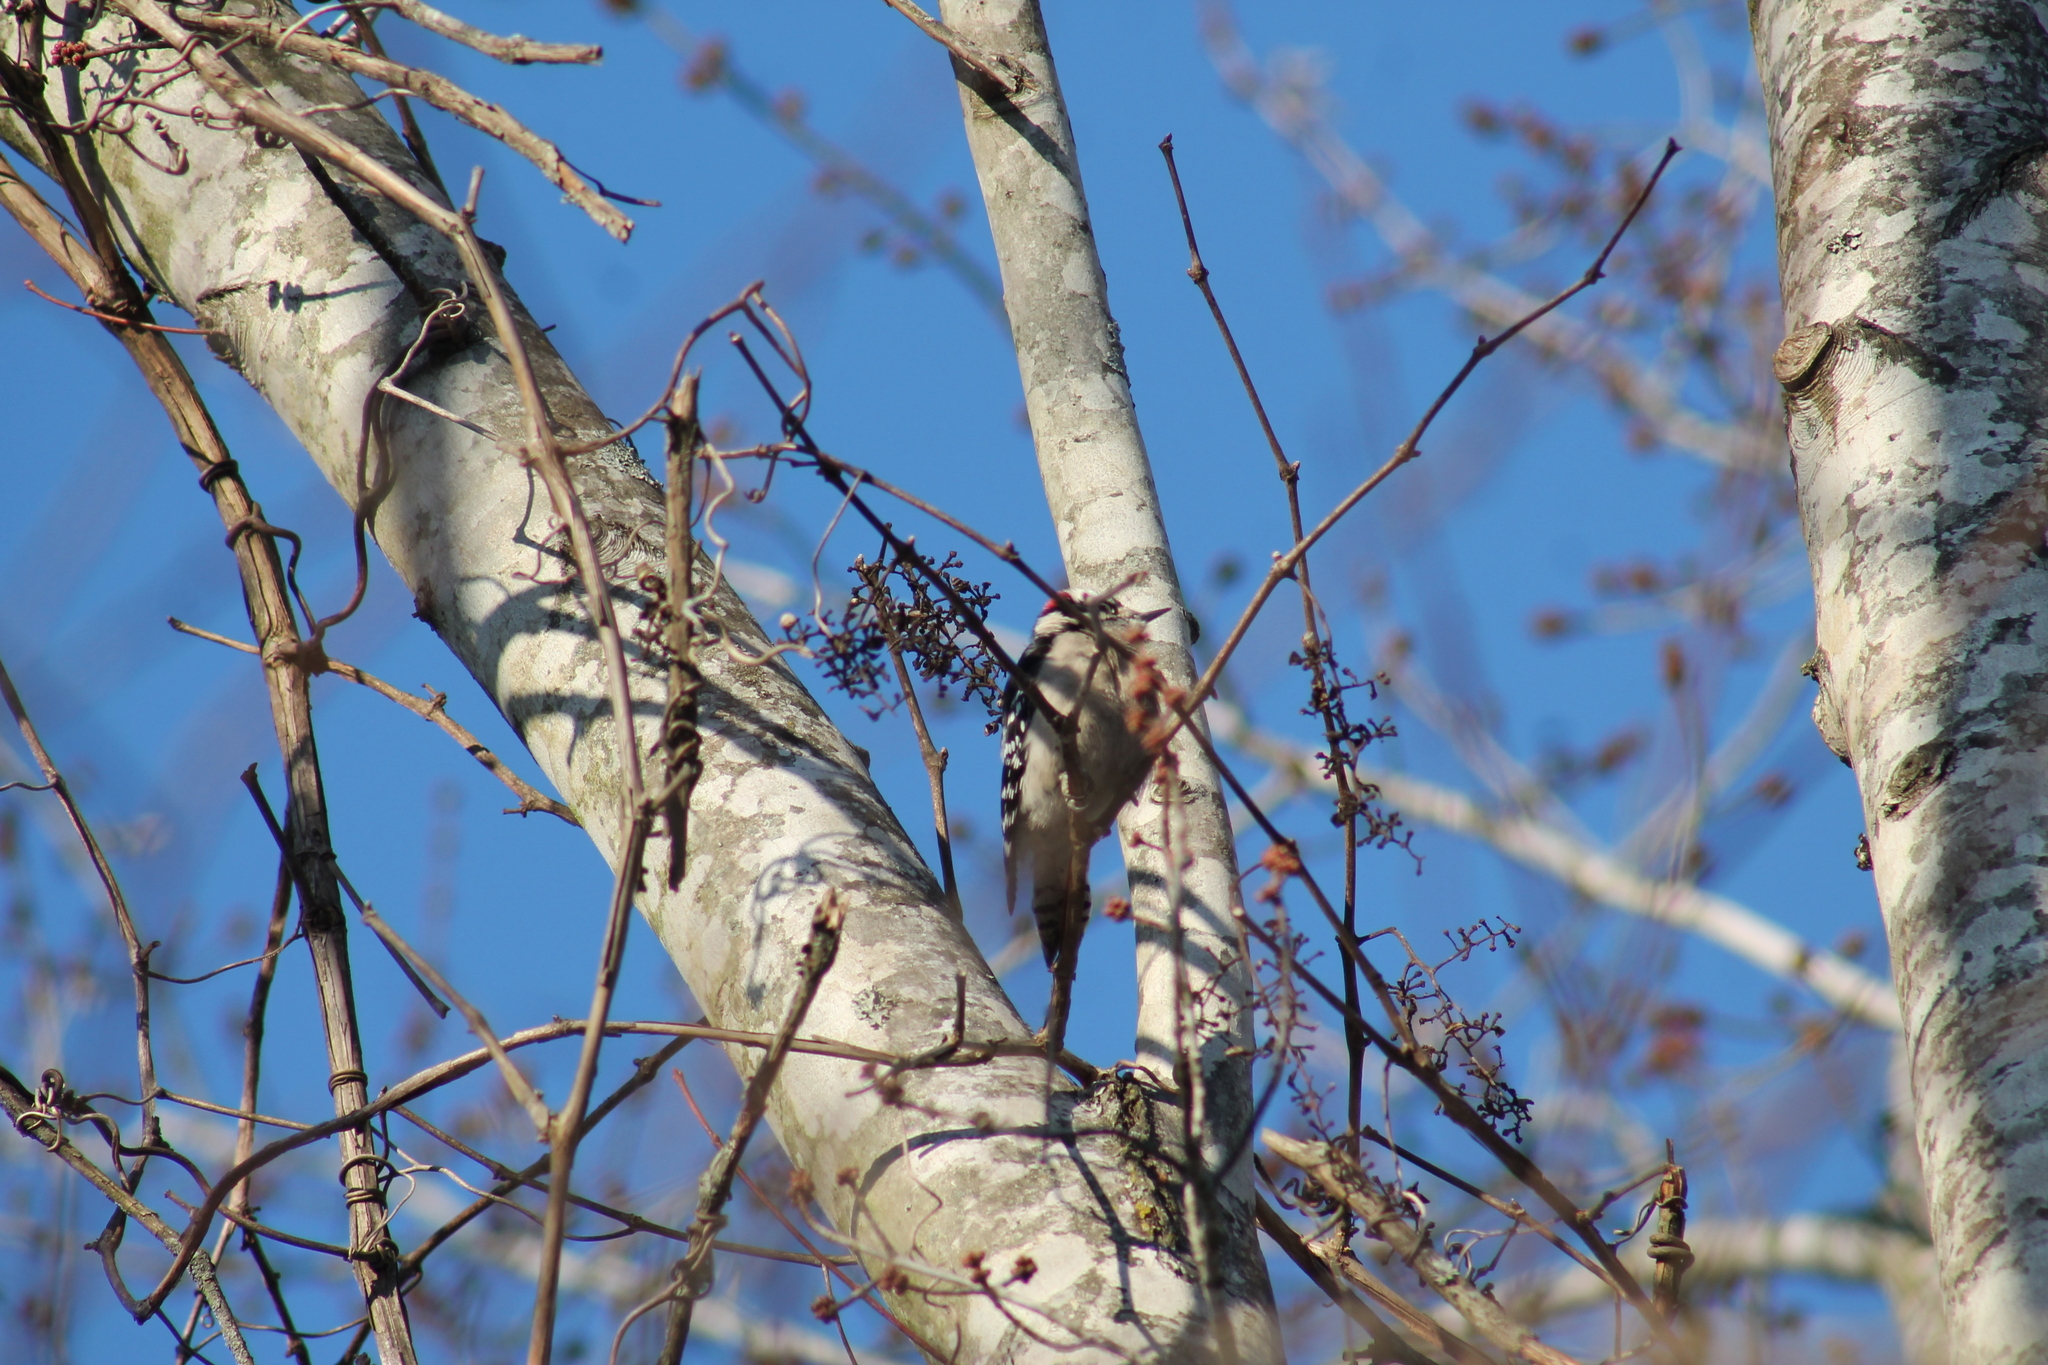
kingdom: Animalia
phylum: Chordata
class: Aves
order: Piciformes
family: Picidae
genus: Dryobates
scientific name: Dryobates pubescens
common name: Downy woodpecker
